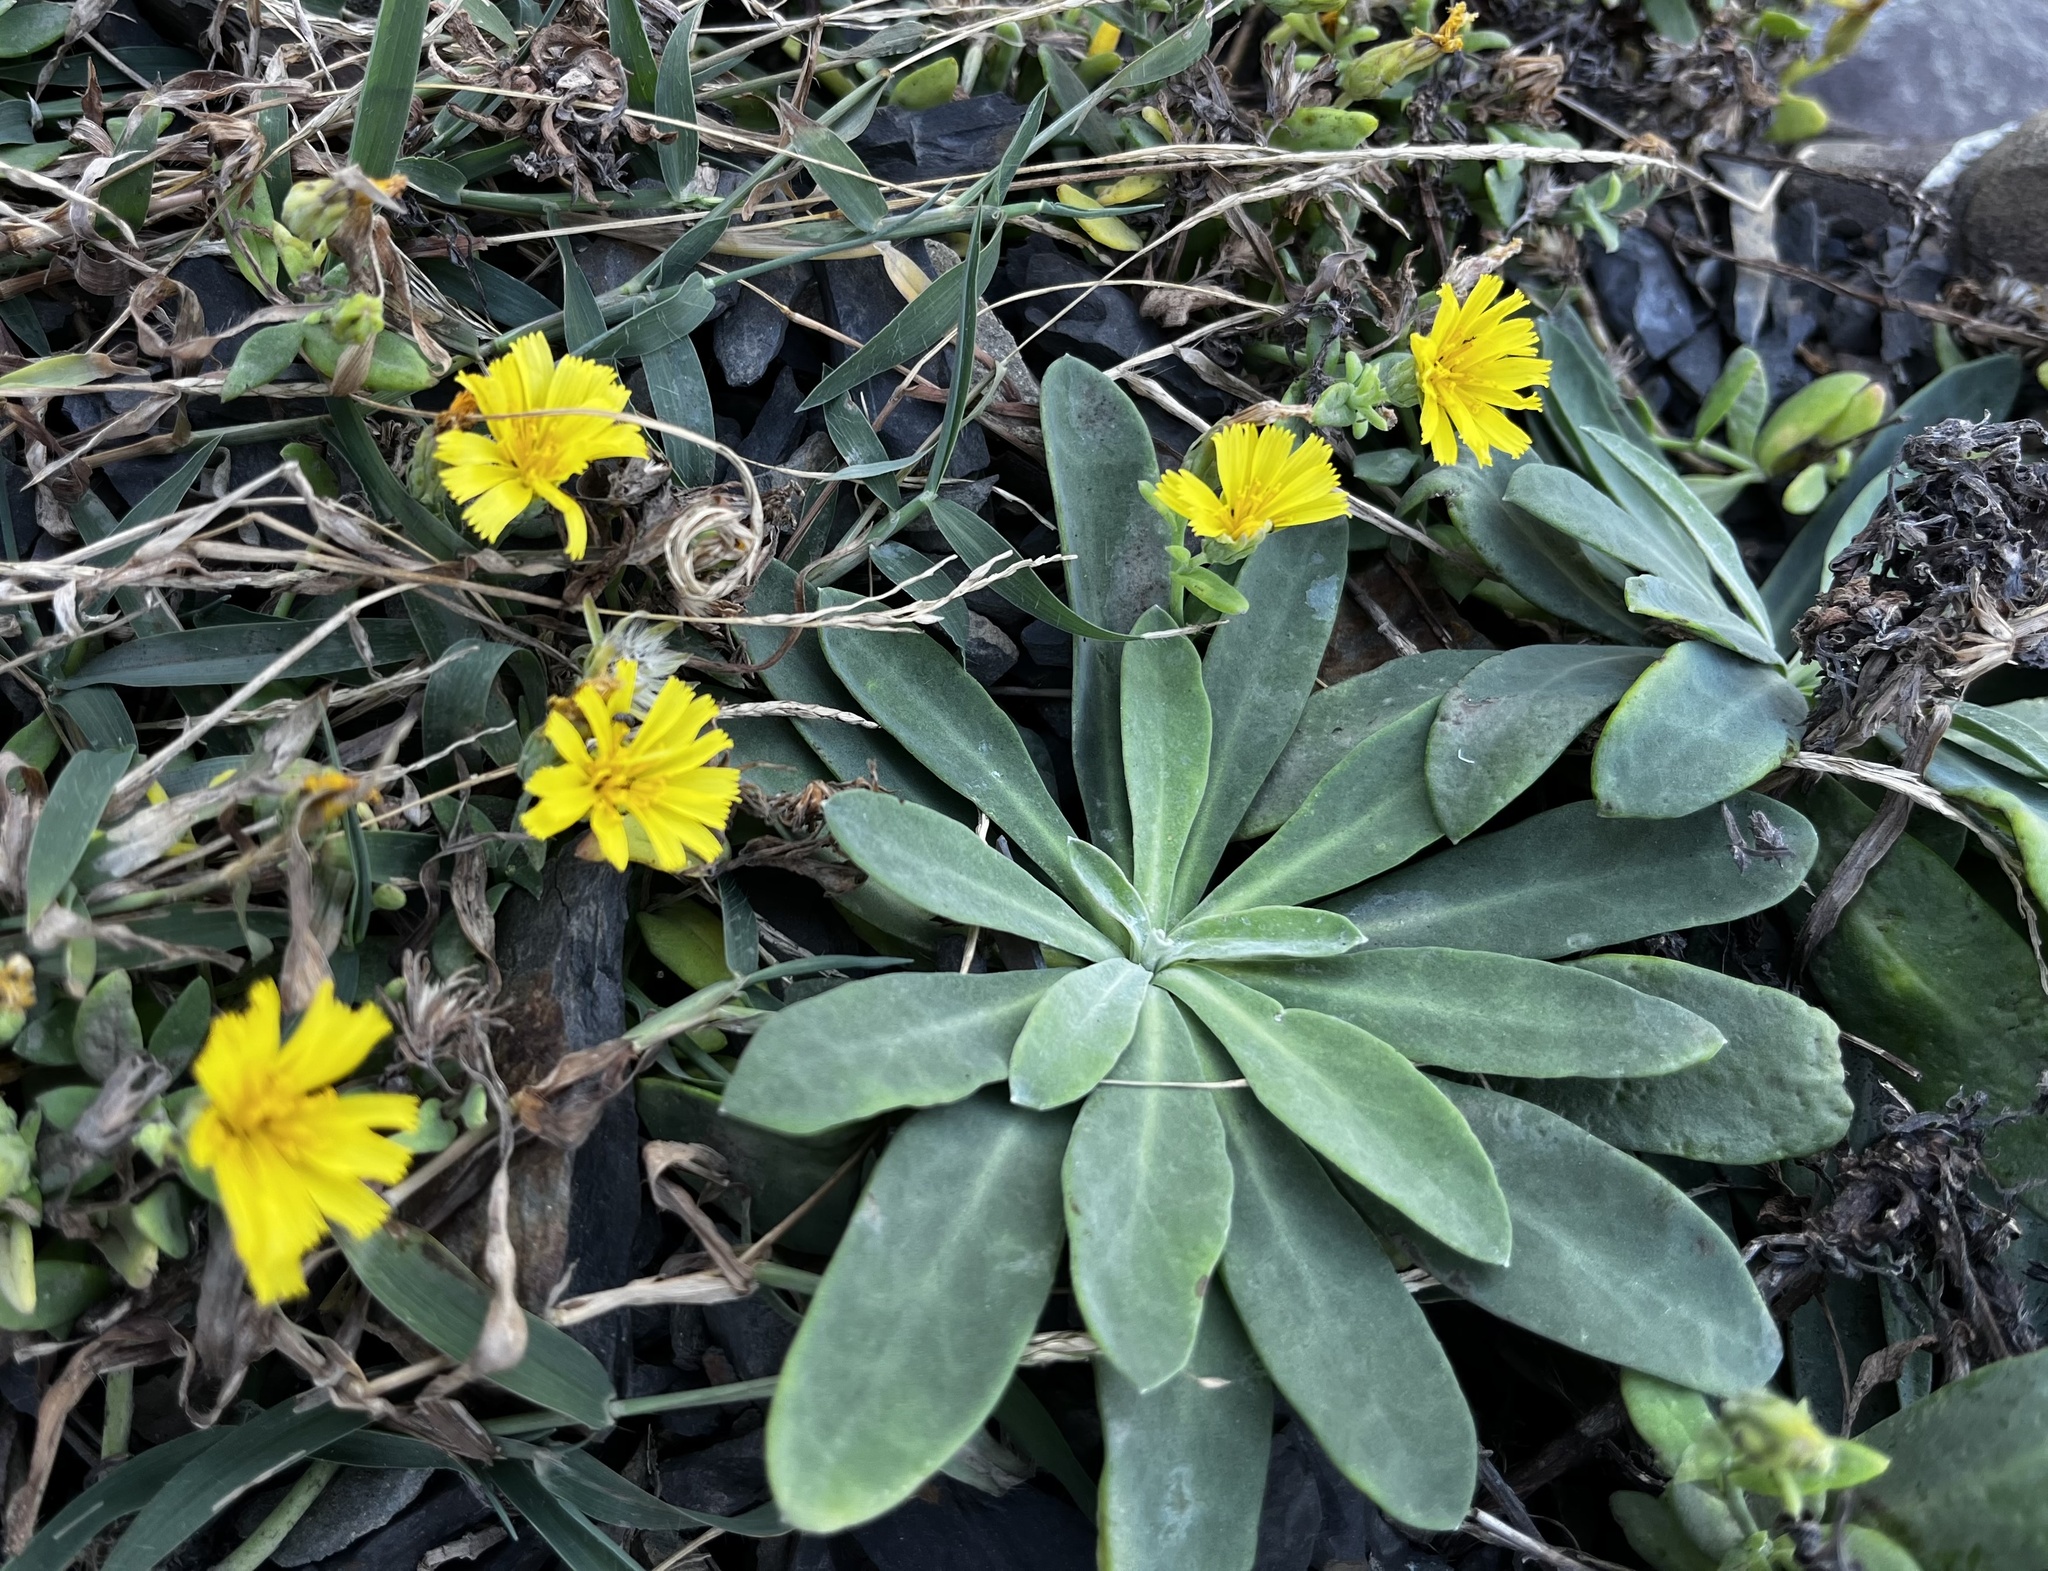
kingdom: Plantae
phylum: Tracheophyta
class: Magnoliopsida
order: Asterales
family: Asteraceae
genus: Crepidiastrum
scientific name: Crepidiastrum taiwanianum
